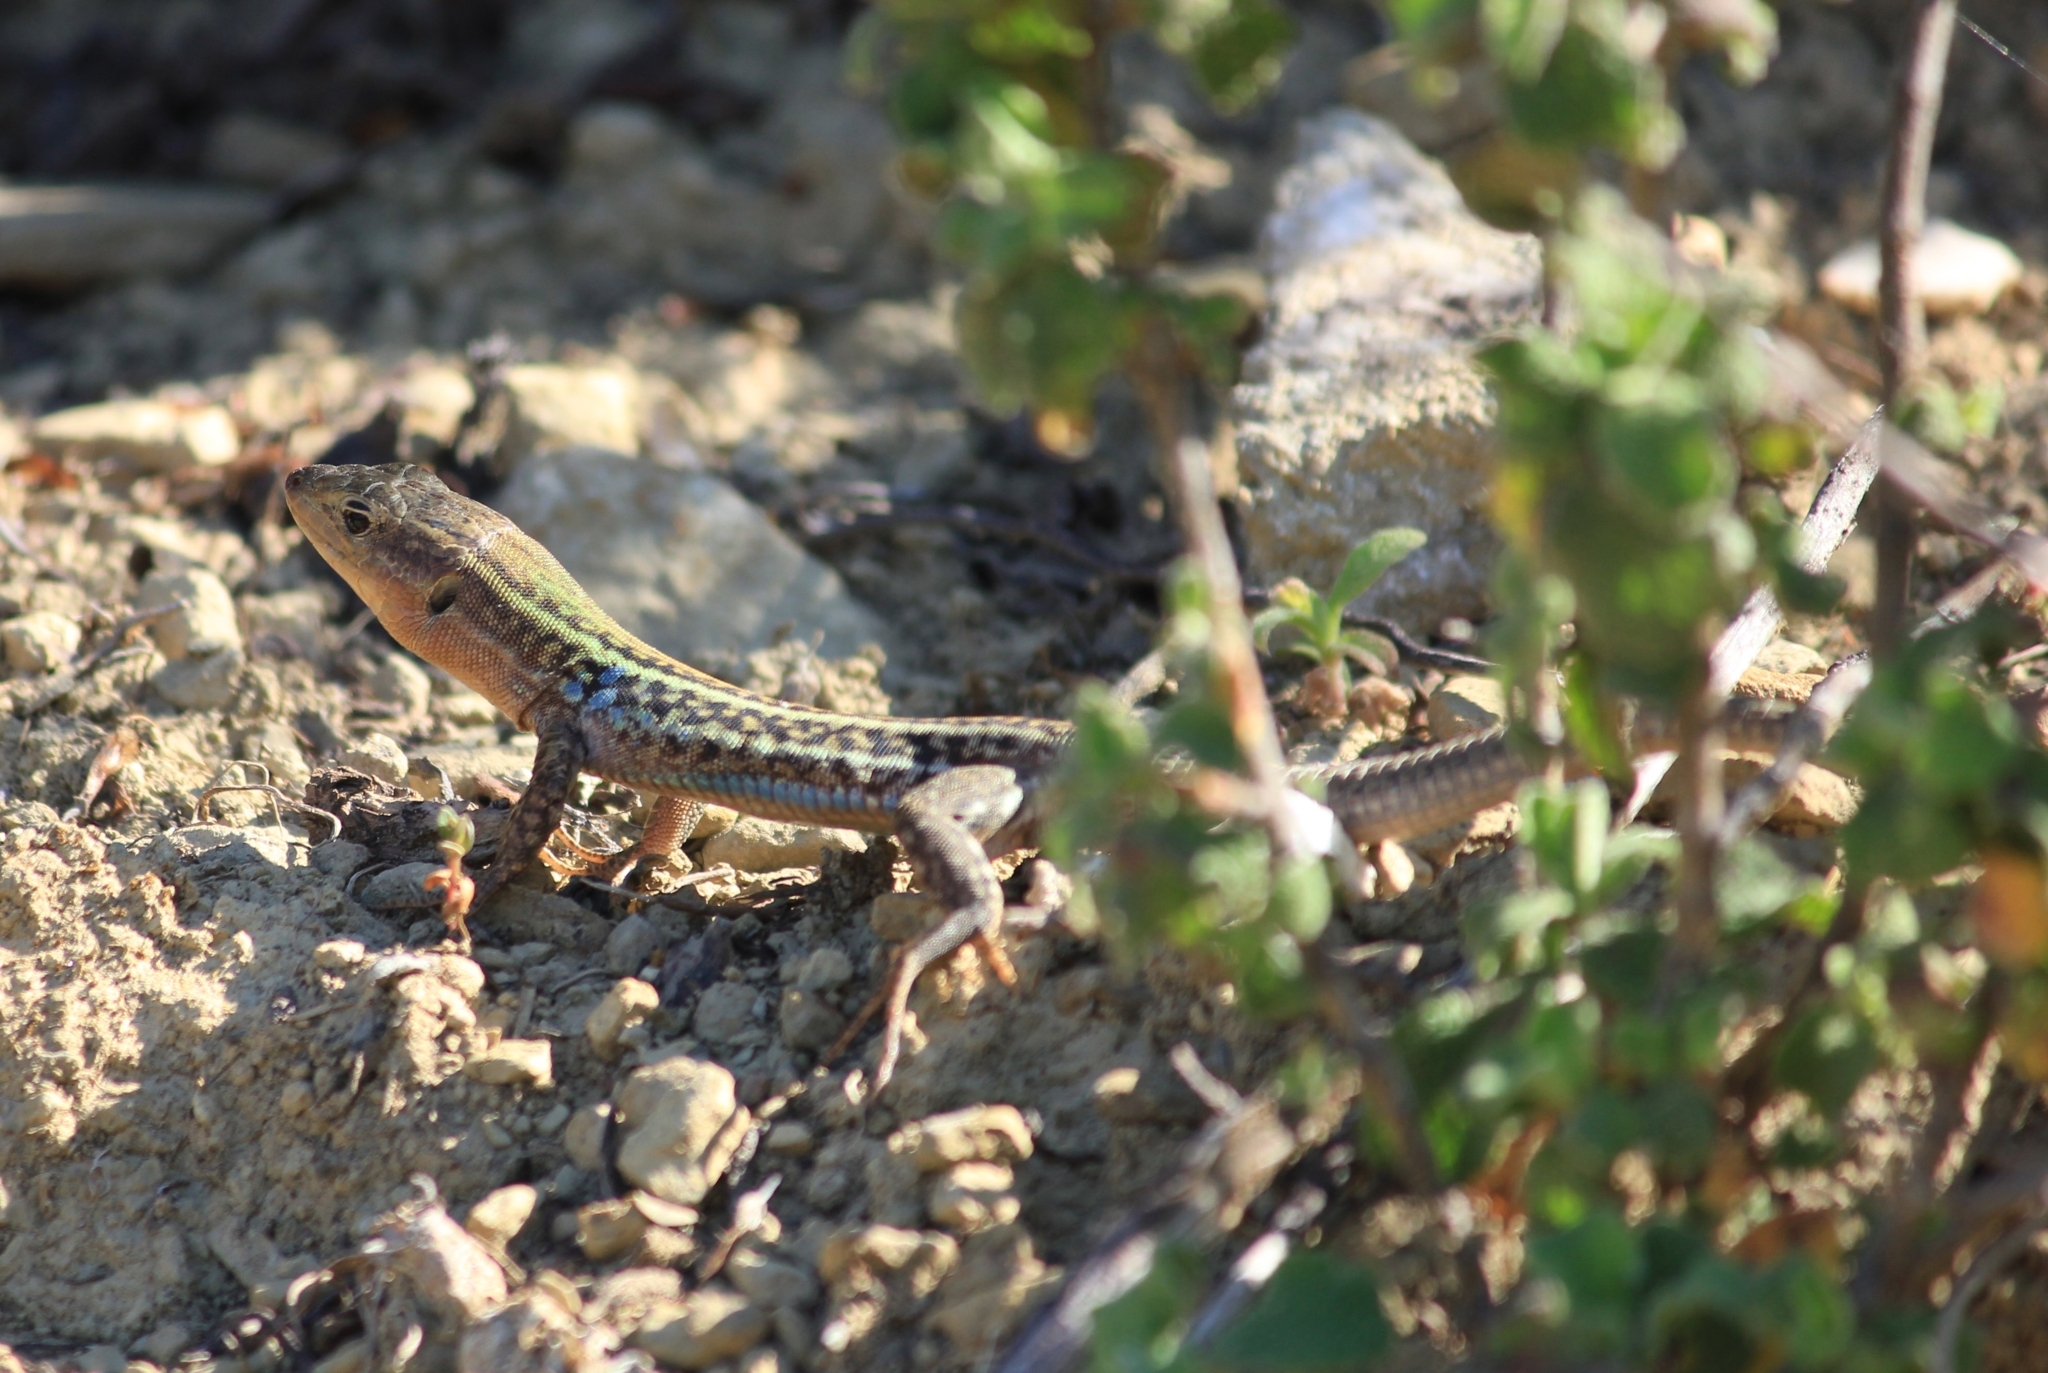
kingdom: Animalia
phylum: Chordata
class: Squamata
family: Lacertidae
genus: Podarcis
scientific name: Podarcis peloponnesiacus
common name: Peloponnese wall lizard
